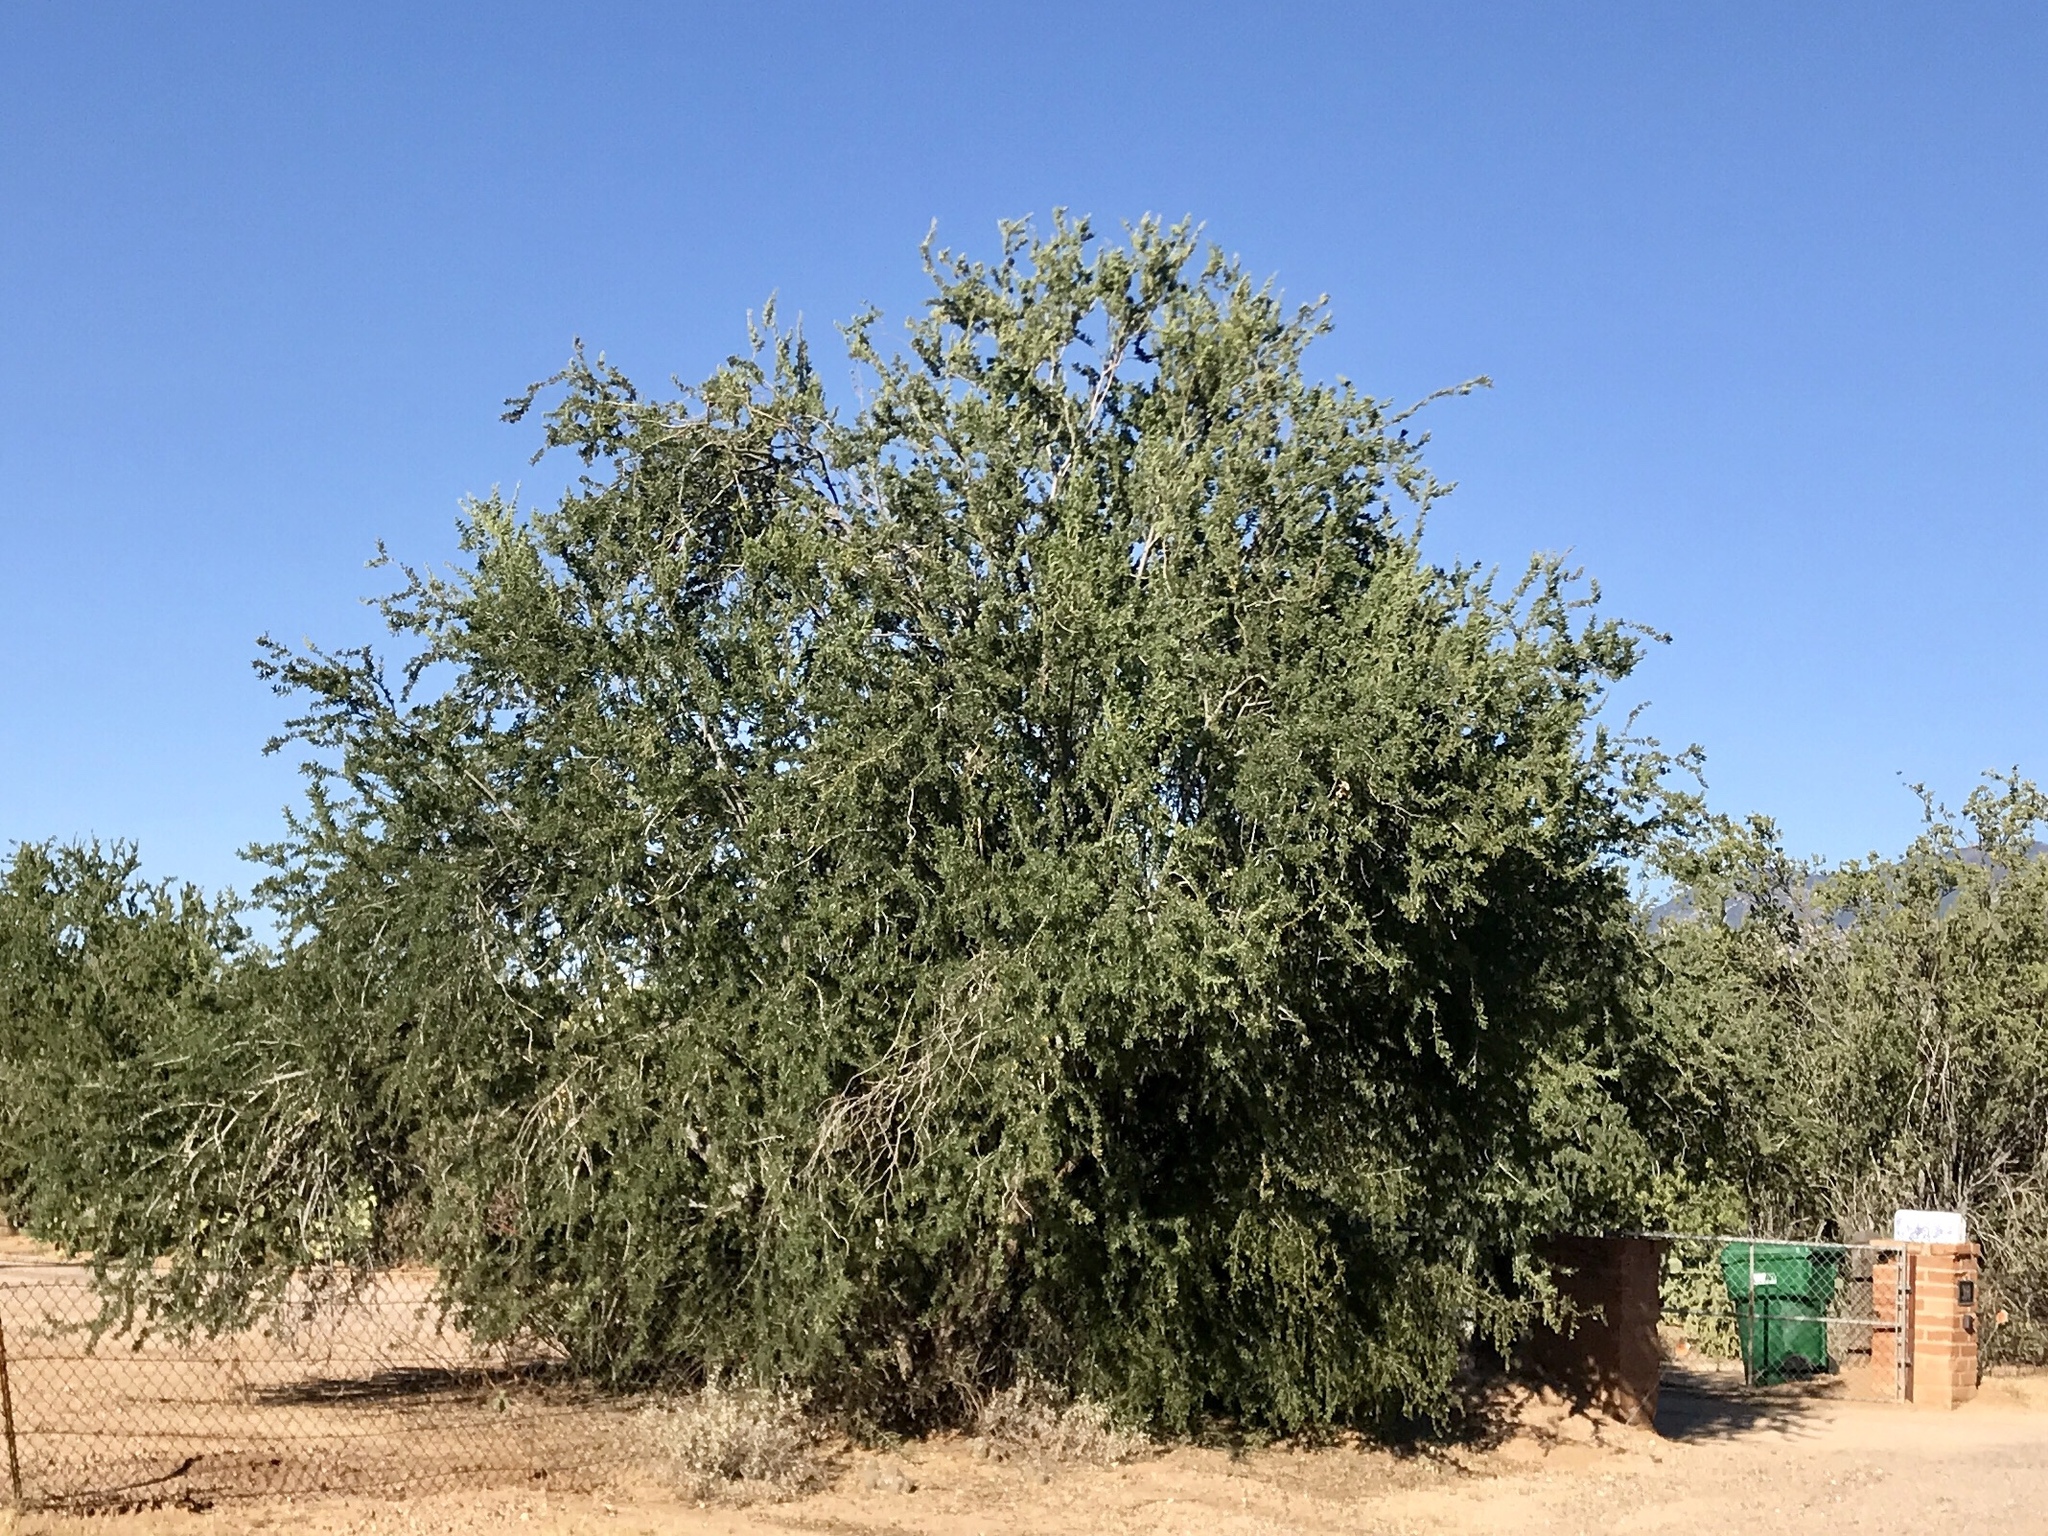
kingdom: Plantae
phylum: Tracheophyta
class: Magnoliopsida
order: Fabales
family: Fabaceae
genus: Olneya
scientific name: Olneya tesota
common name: Desert ironwood
